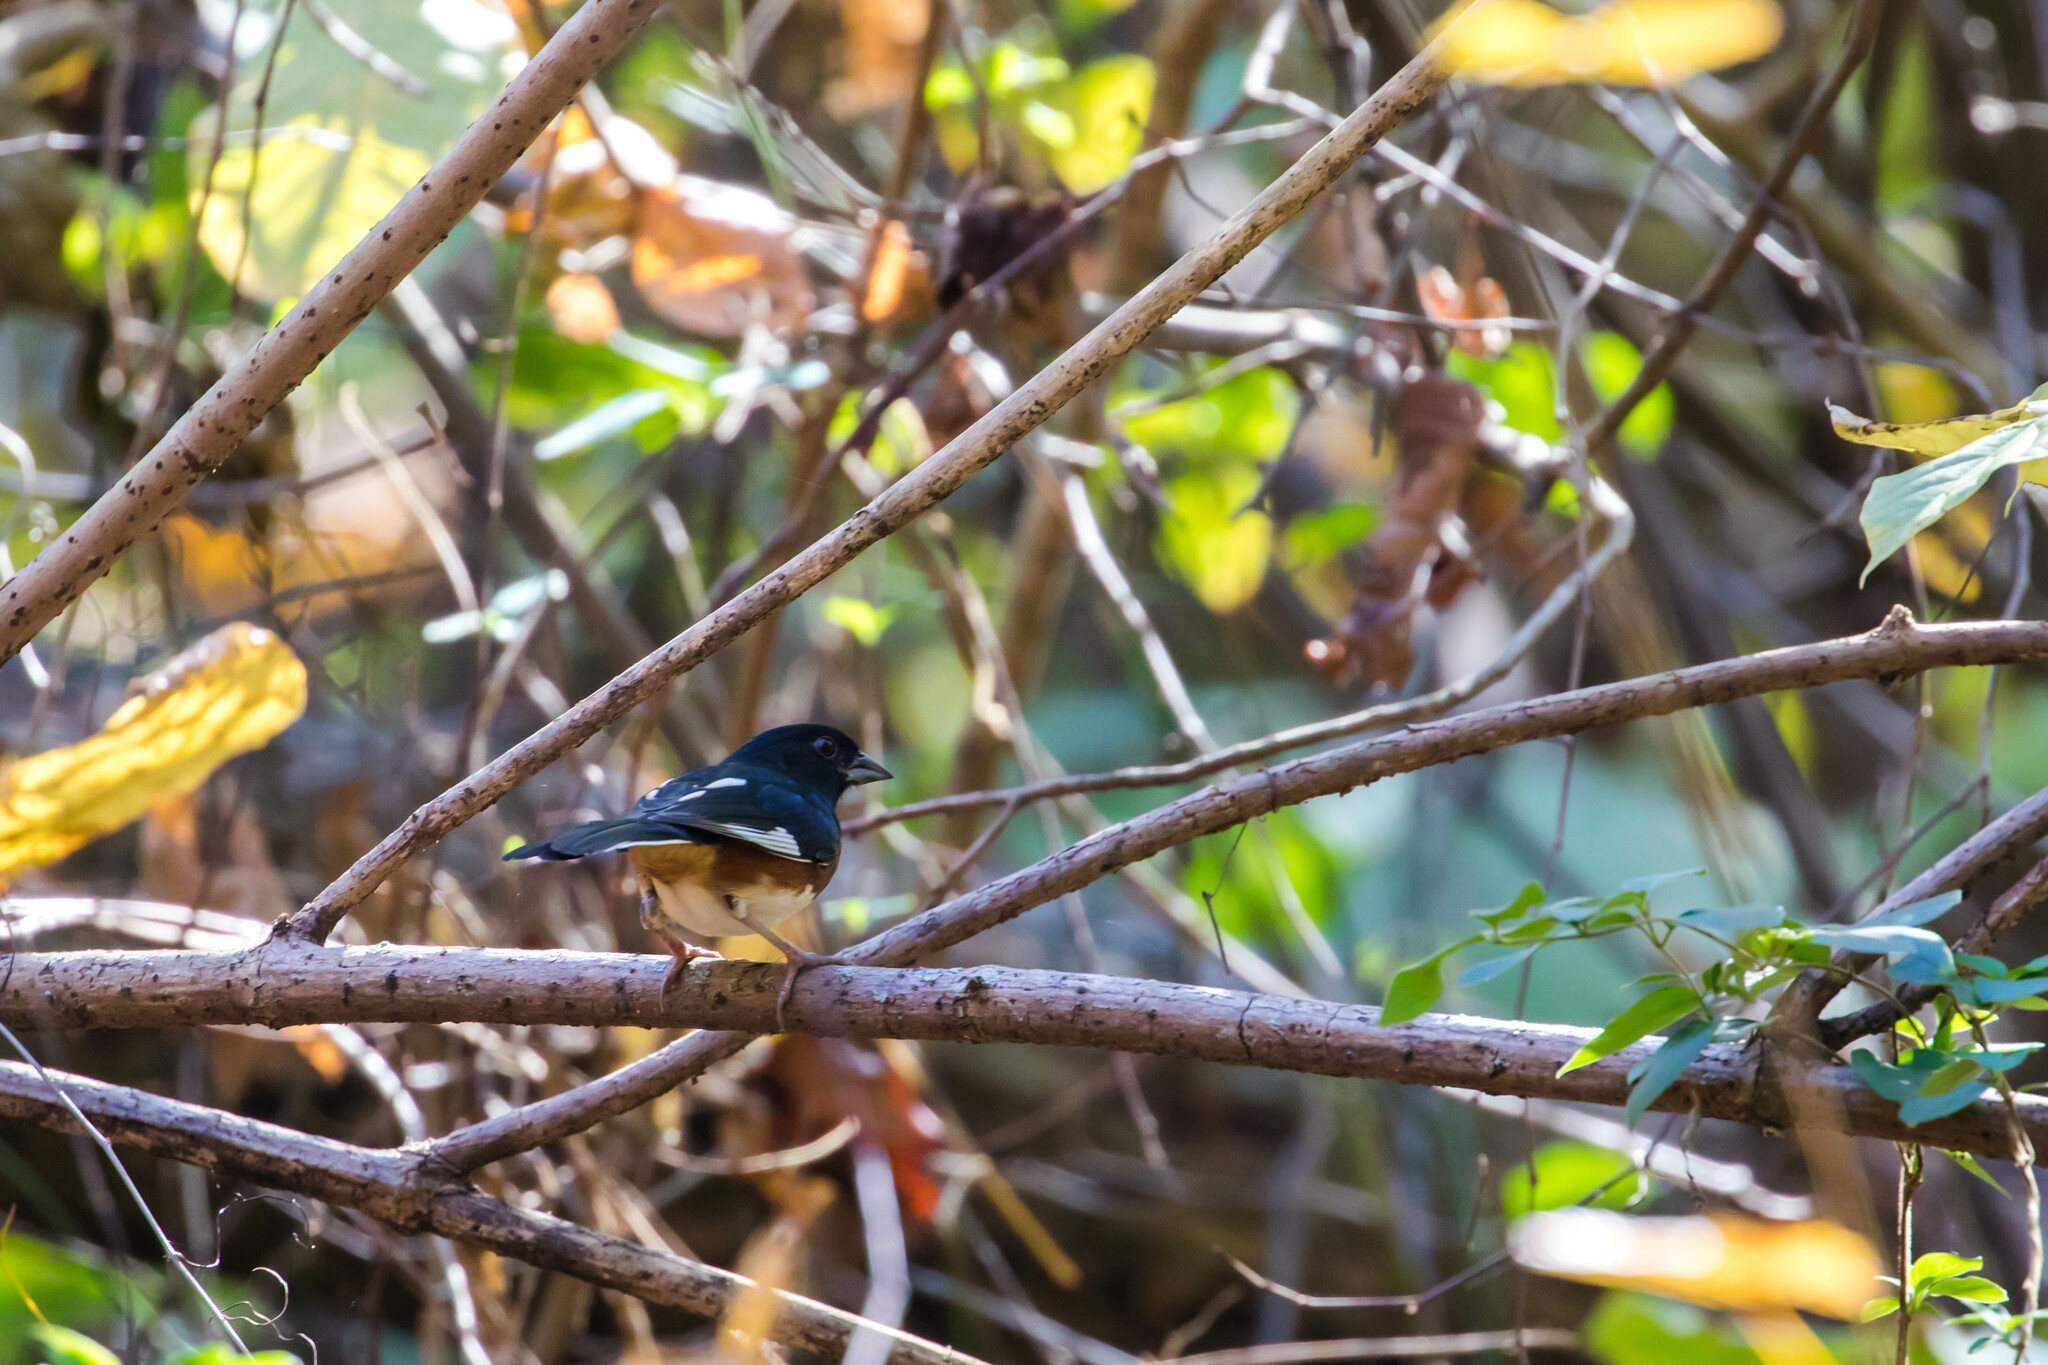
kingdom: Animalia
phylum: Chordata
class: Aves
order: Passeriformes
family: Passerellidae
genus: Pipilo
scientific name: Pipilo erythrophthalmus
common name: Eastern towhee
